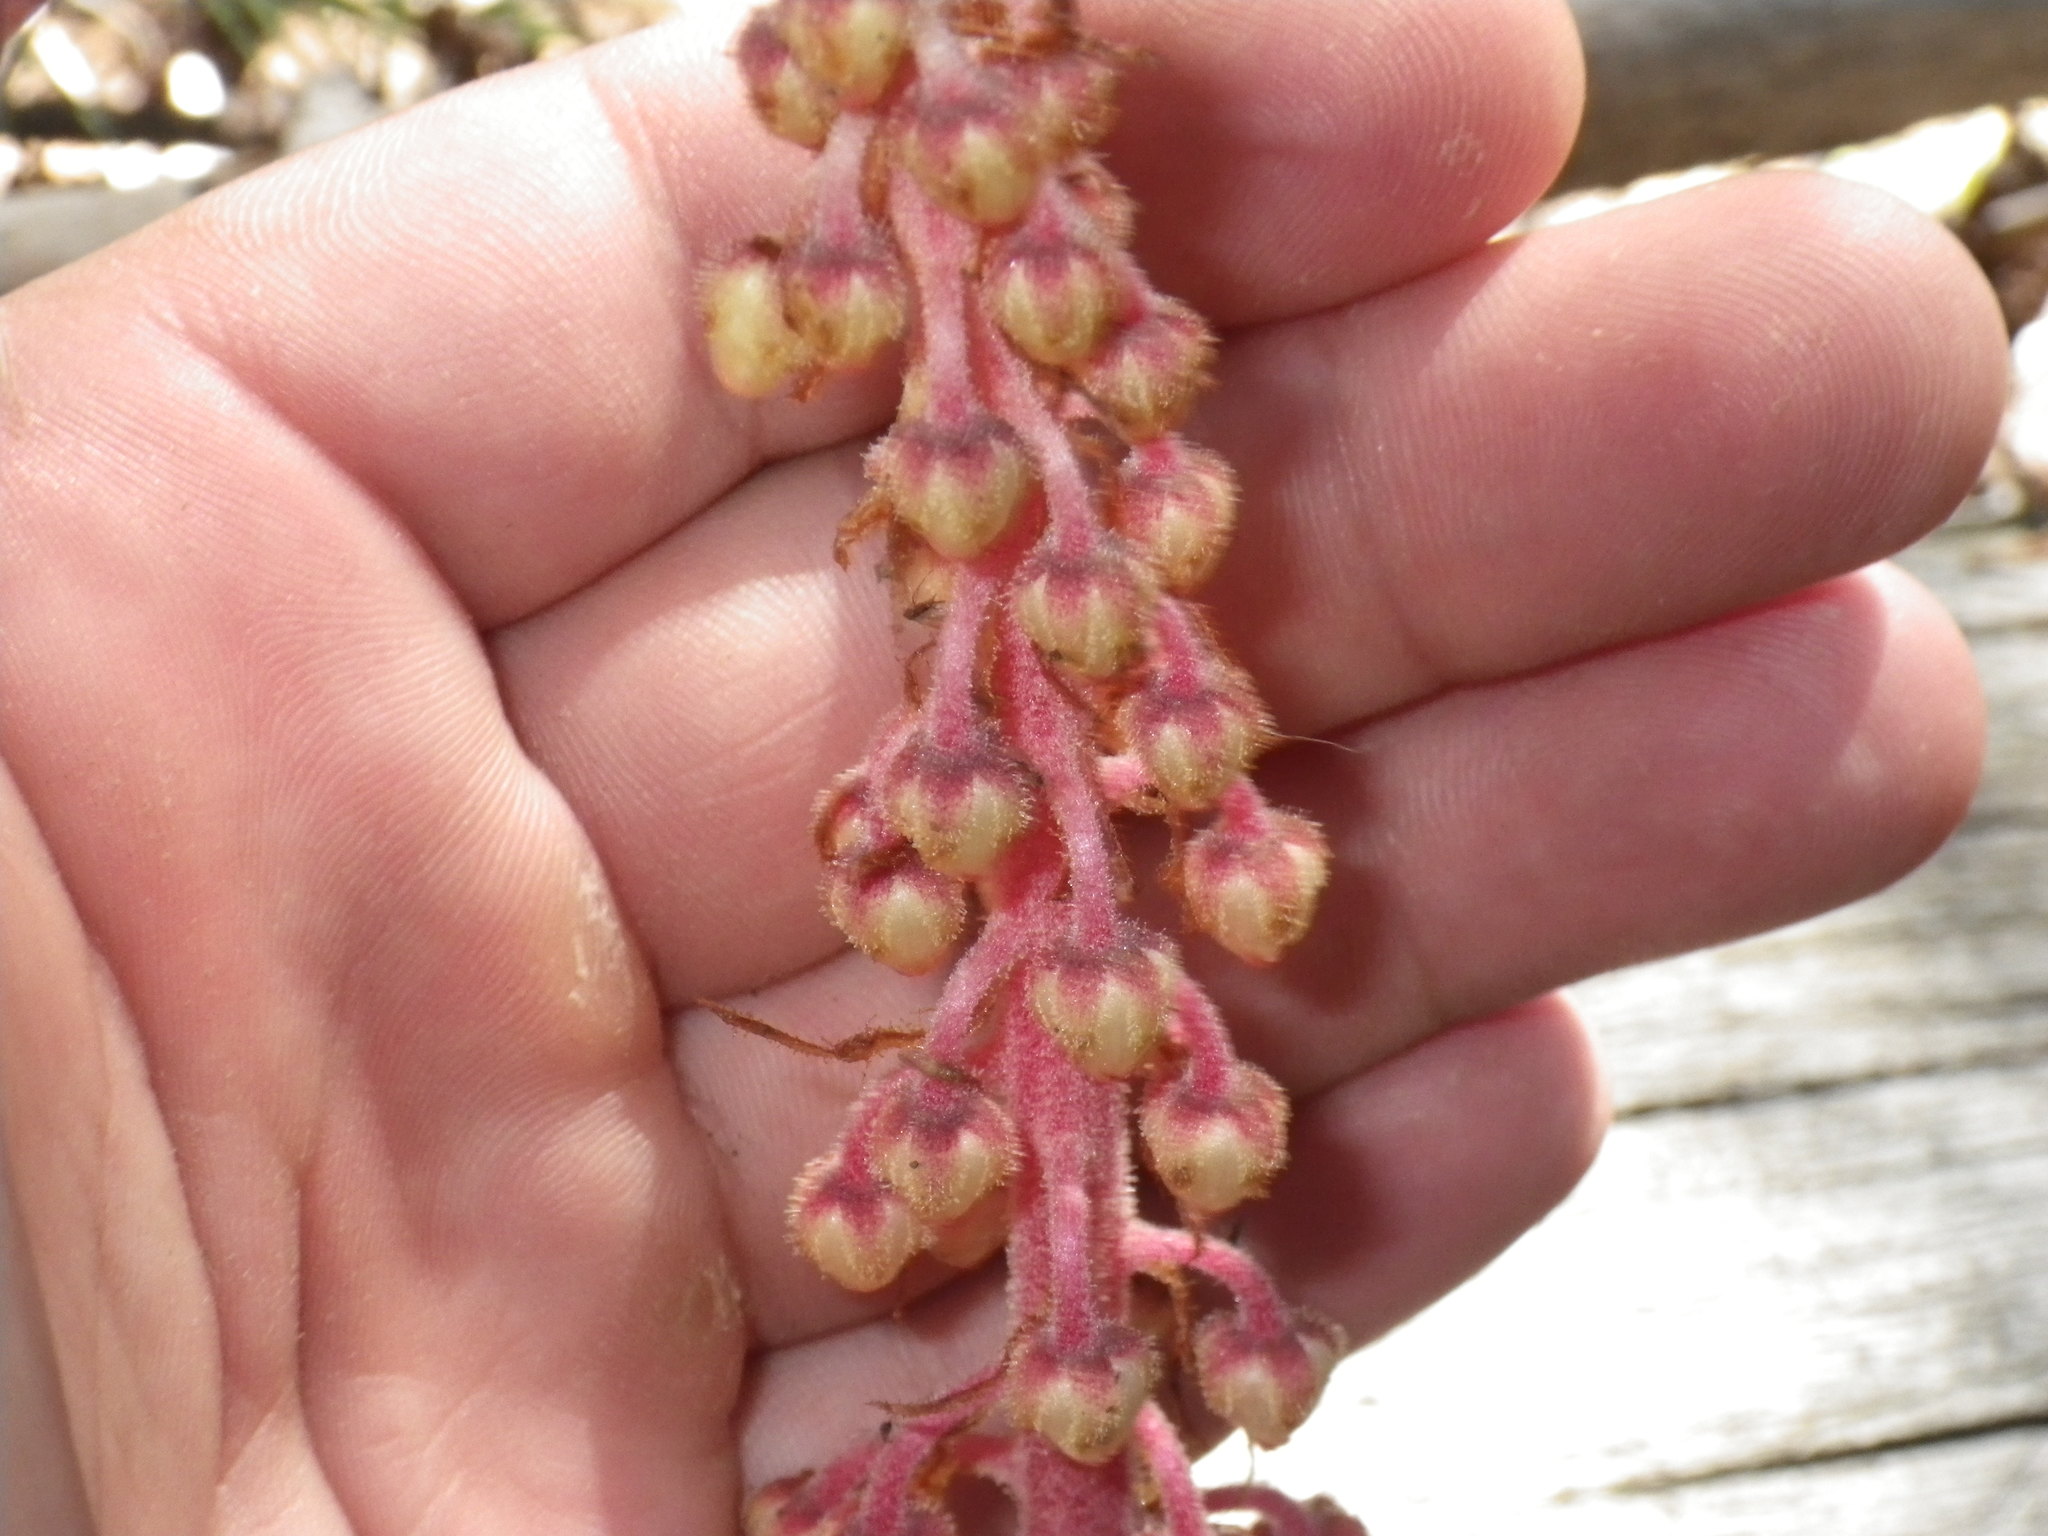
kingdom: Plantae
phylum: Tracheophyta
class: Magnoliopsida
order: Ericales
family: Ericaceae
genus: Pterospora
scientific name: Pterospora andromedea
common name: Giant bird's-nest
